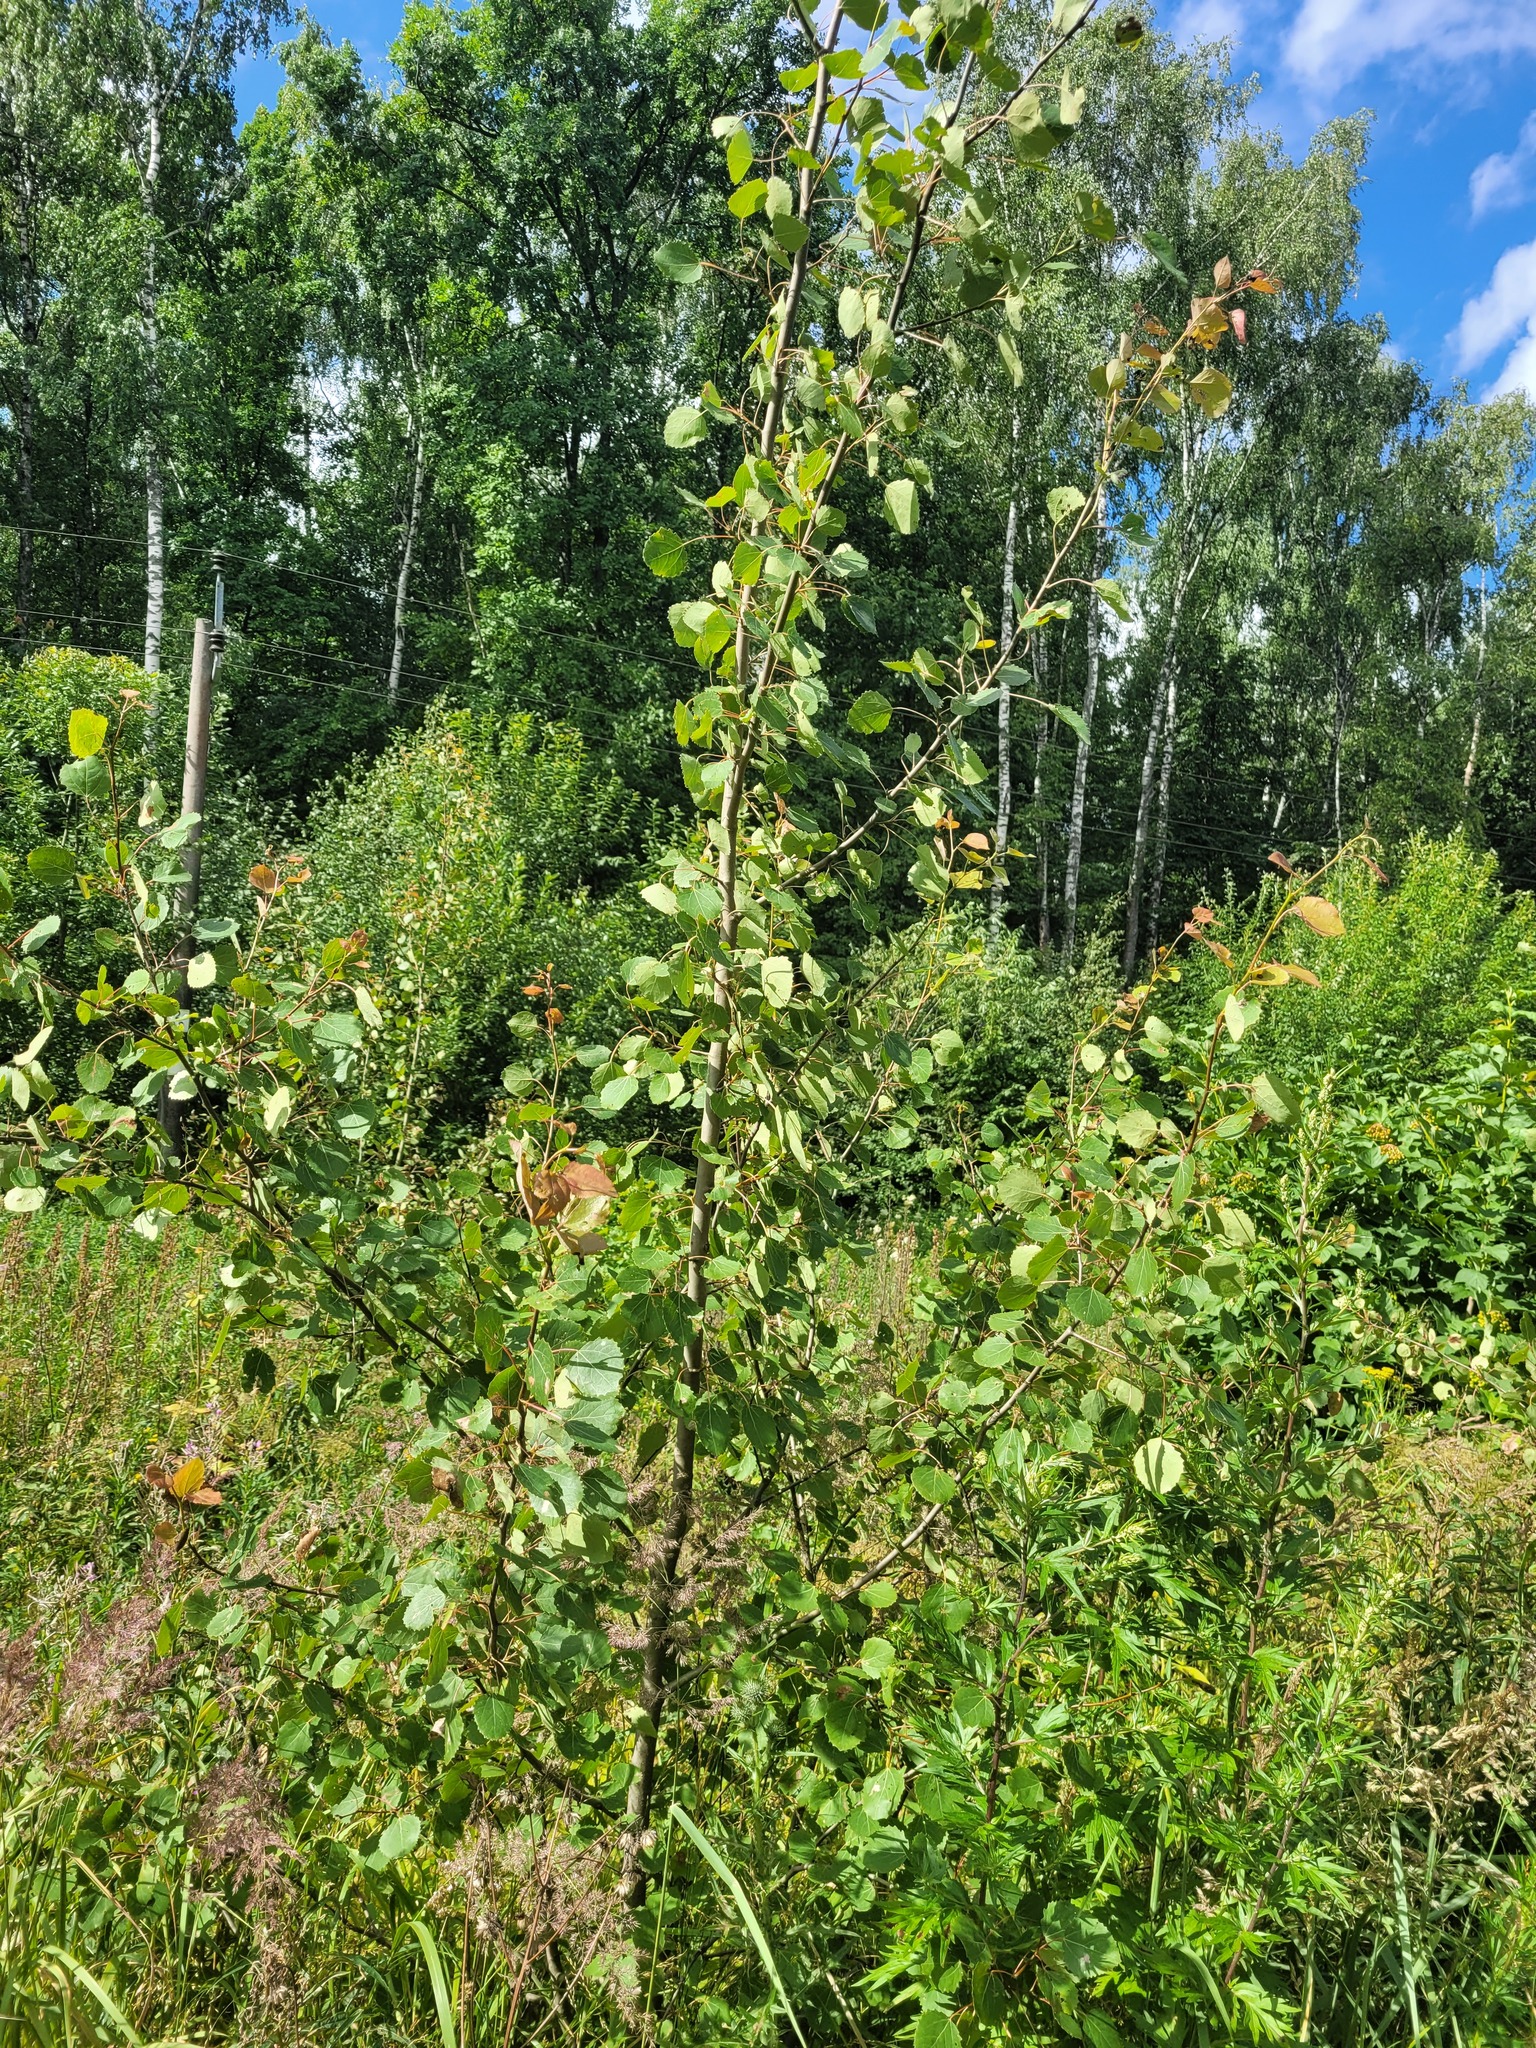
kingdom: Plantae
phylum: Tracheophyta
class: Magnoliopsida
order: Malpighiales
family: Salicaceae
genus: Populus
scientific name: Populus tremula
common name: European aspen
